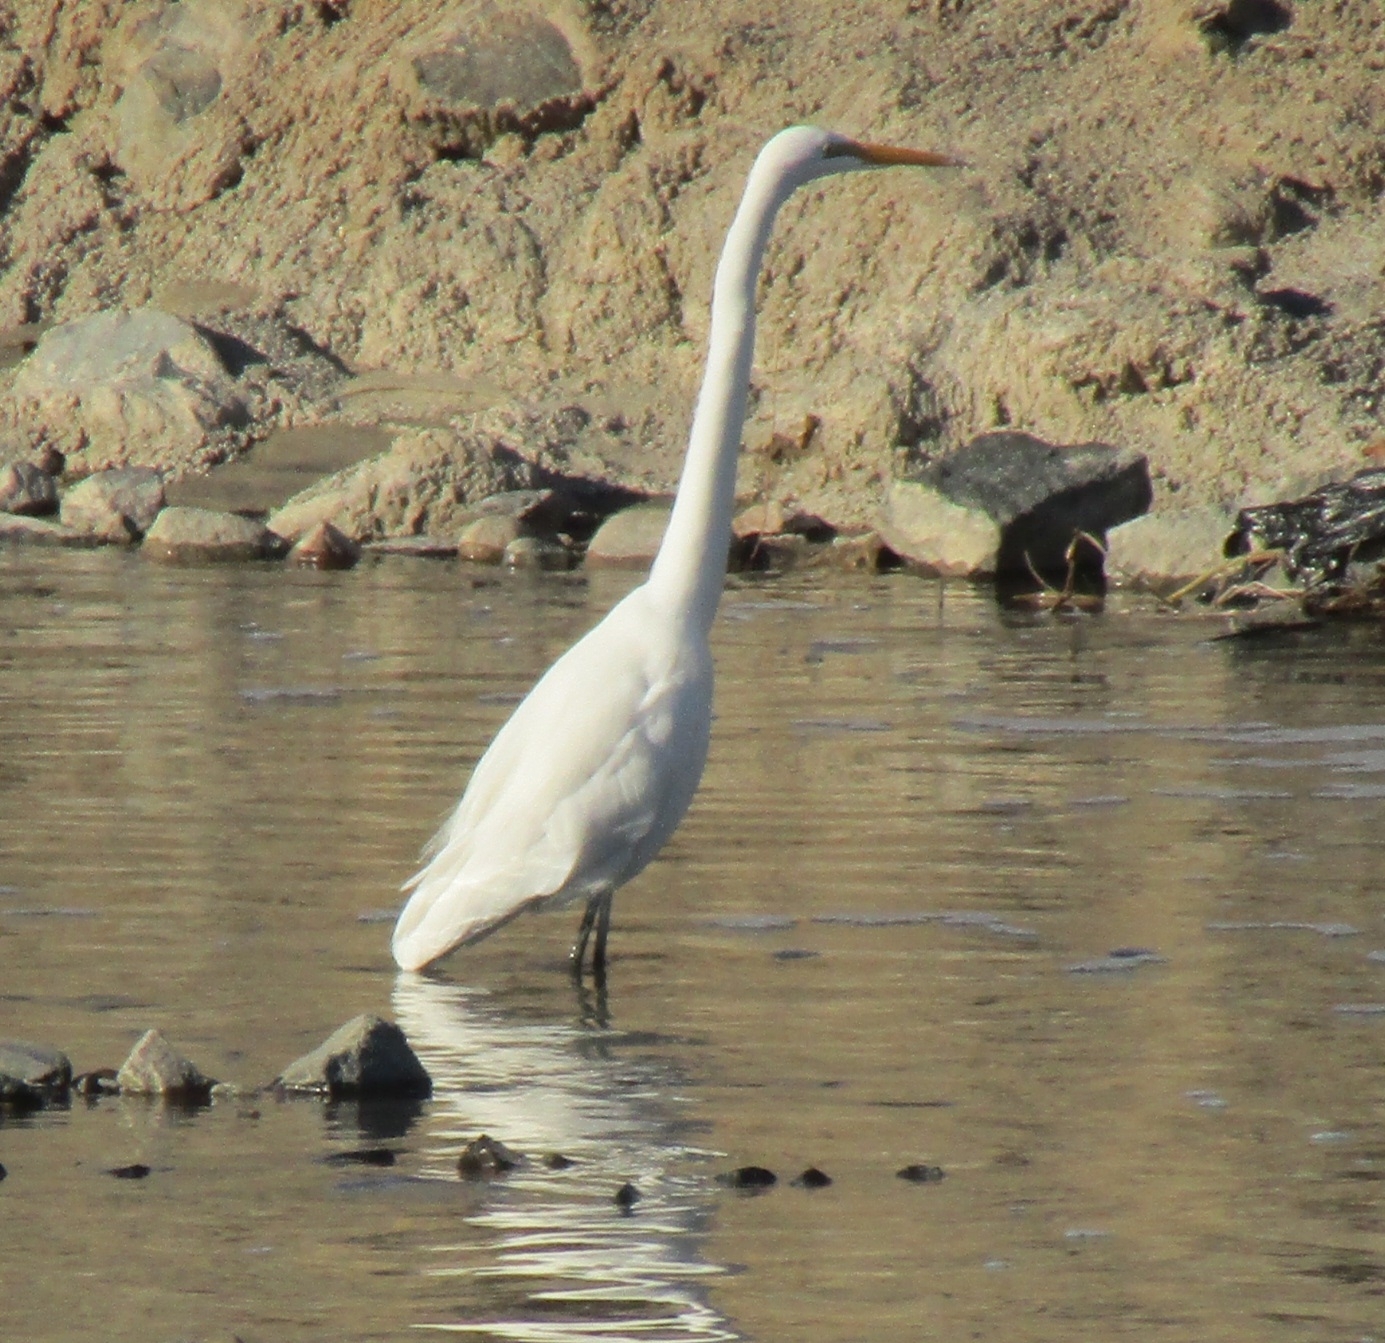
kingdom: Animalia
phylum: Chordata
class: Aves
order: Pelecaniformes
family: Ardeidae
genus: Ardea
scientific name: Ardea alba
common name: Great egret
